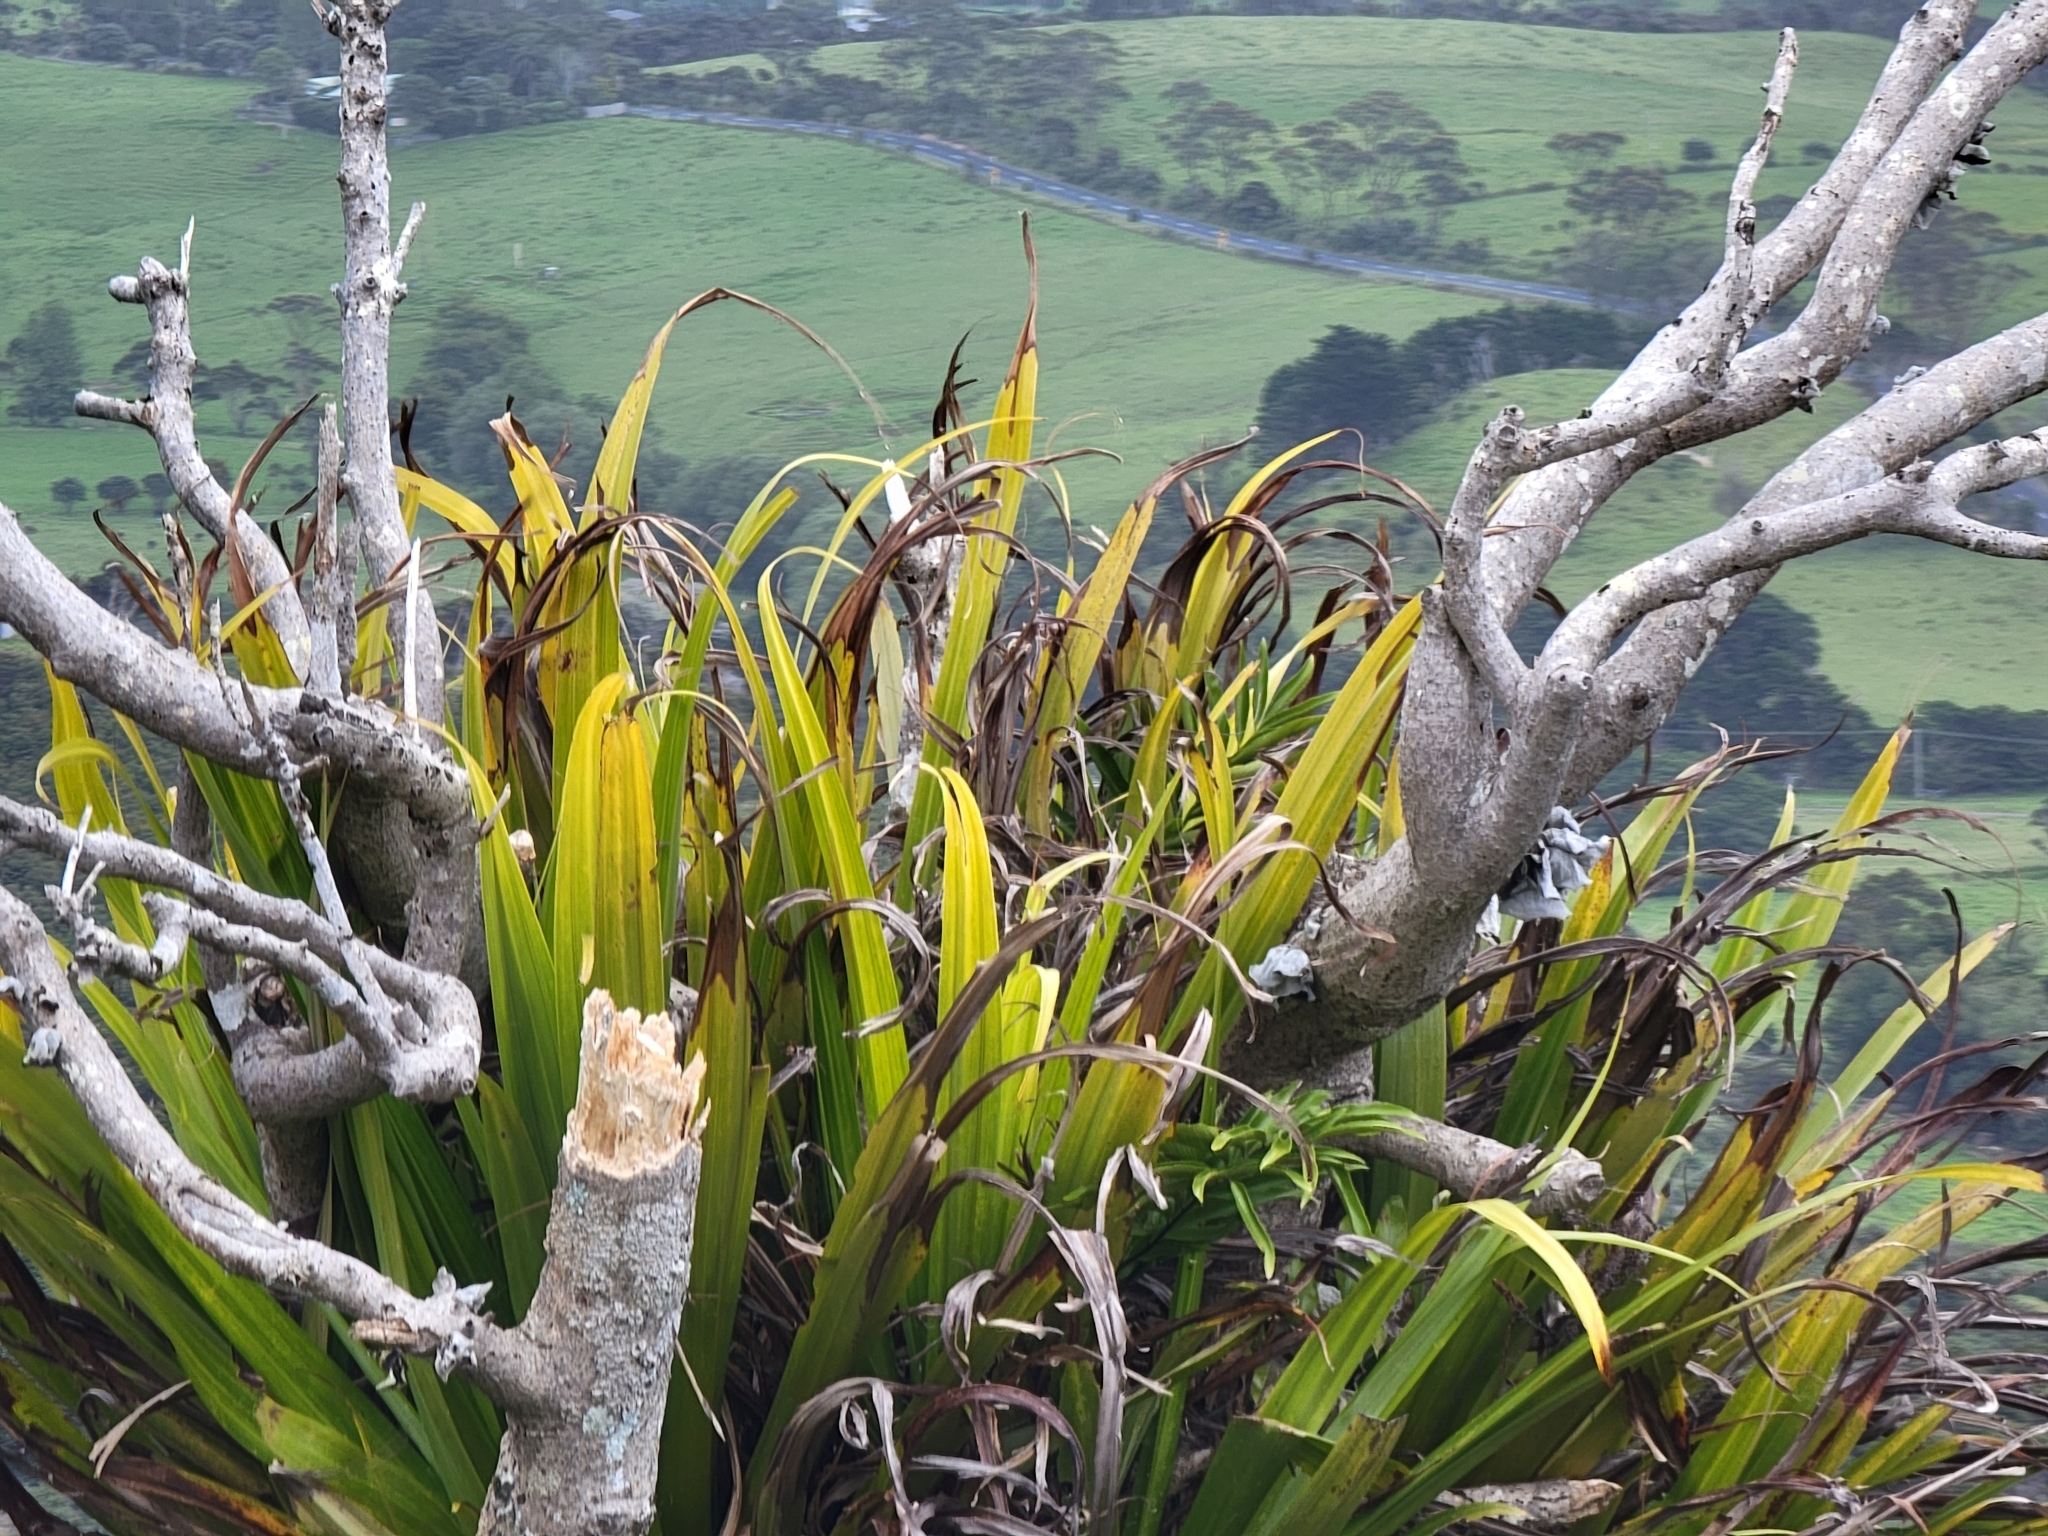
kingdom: Plantae
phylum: Tracheophyta
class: Liliopsida
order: Asparagales
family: Asteliaceae
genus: Astelia
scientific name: Astelia hastata
